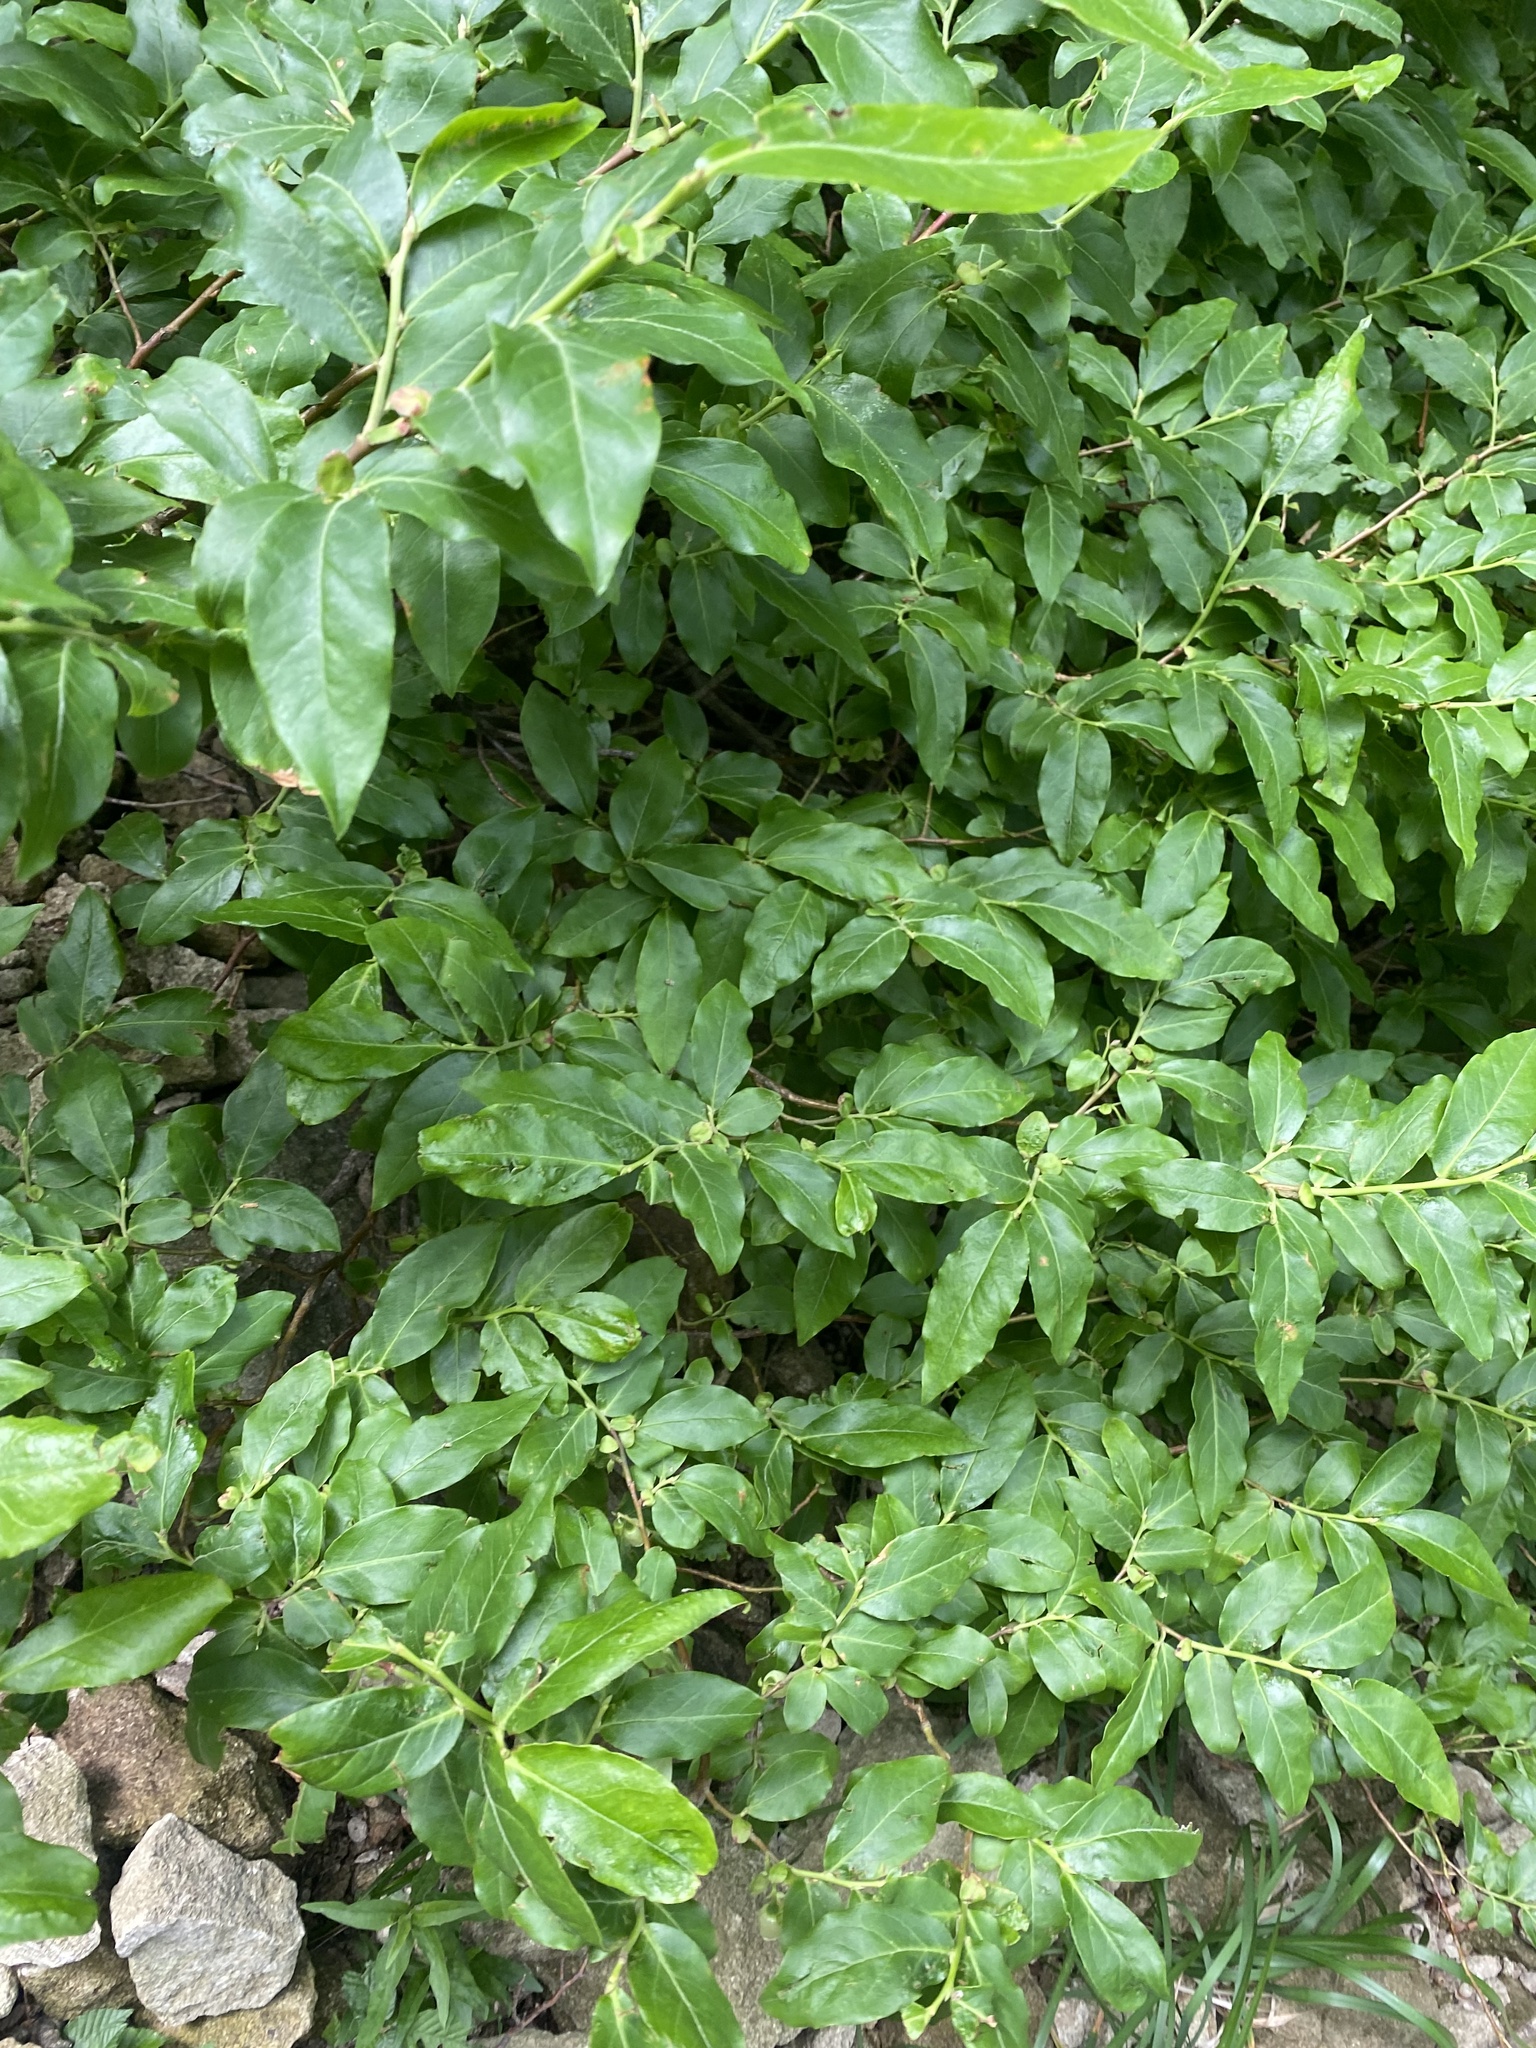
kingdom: Plantae
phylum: Tracheophyta
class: Magnoliopsida
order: Ericales
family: Ericaceae
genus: Vaccinium
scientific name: Vaccinium arctostaphylos
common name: Caucasian whortleberry
